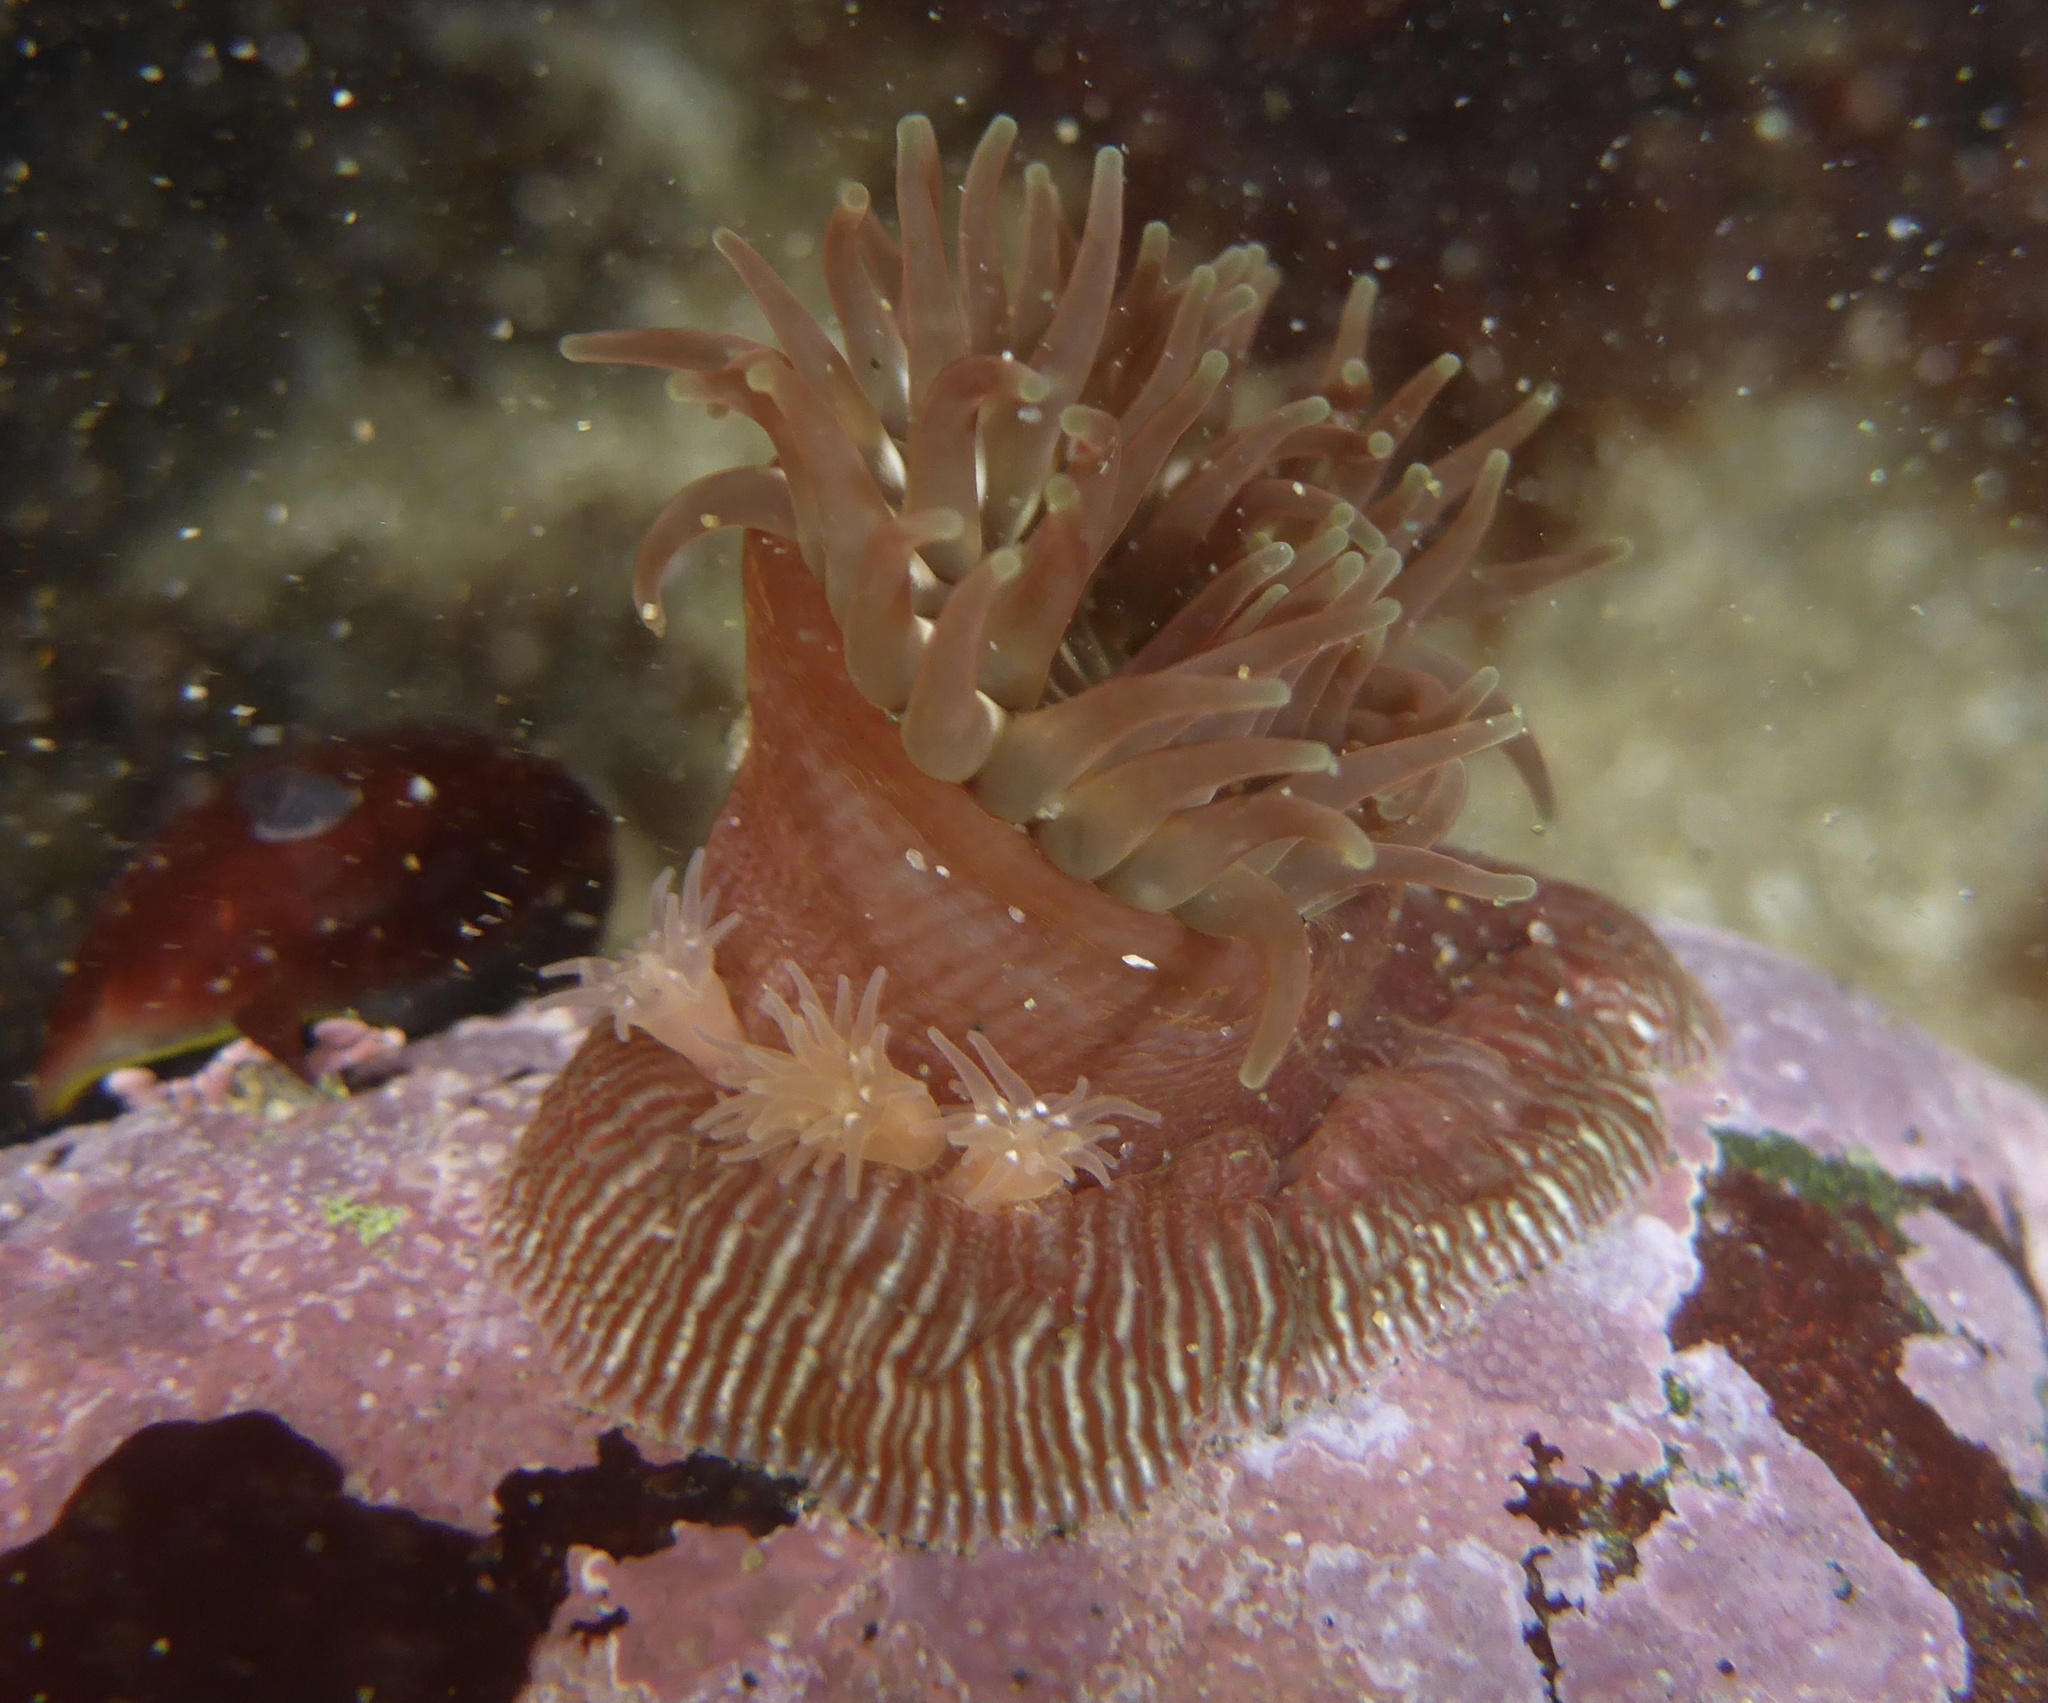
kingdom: Animalia
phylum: Cnidaria
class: Anthozoa
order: Actiniaria
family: Actiniidae
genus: Epiactis
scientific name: Epiactis prolifera
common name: Brooding anemone
